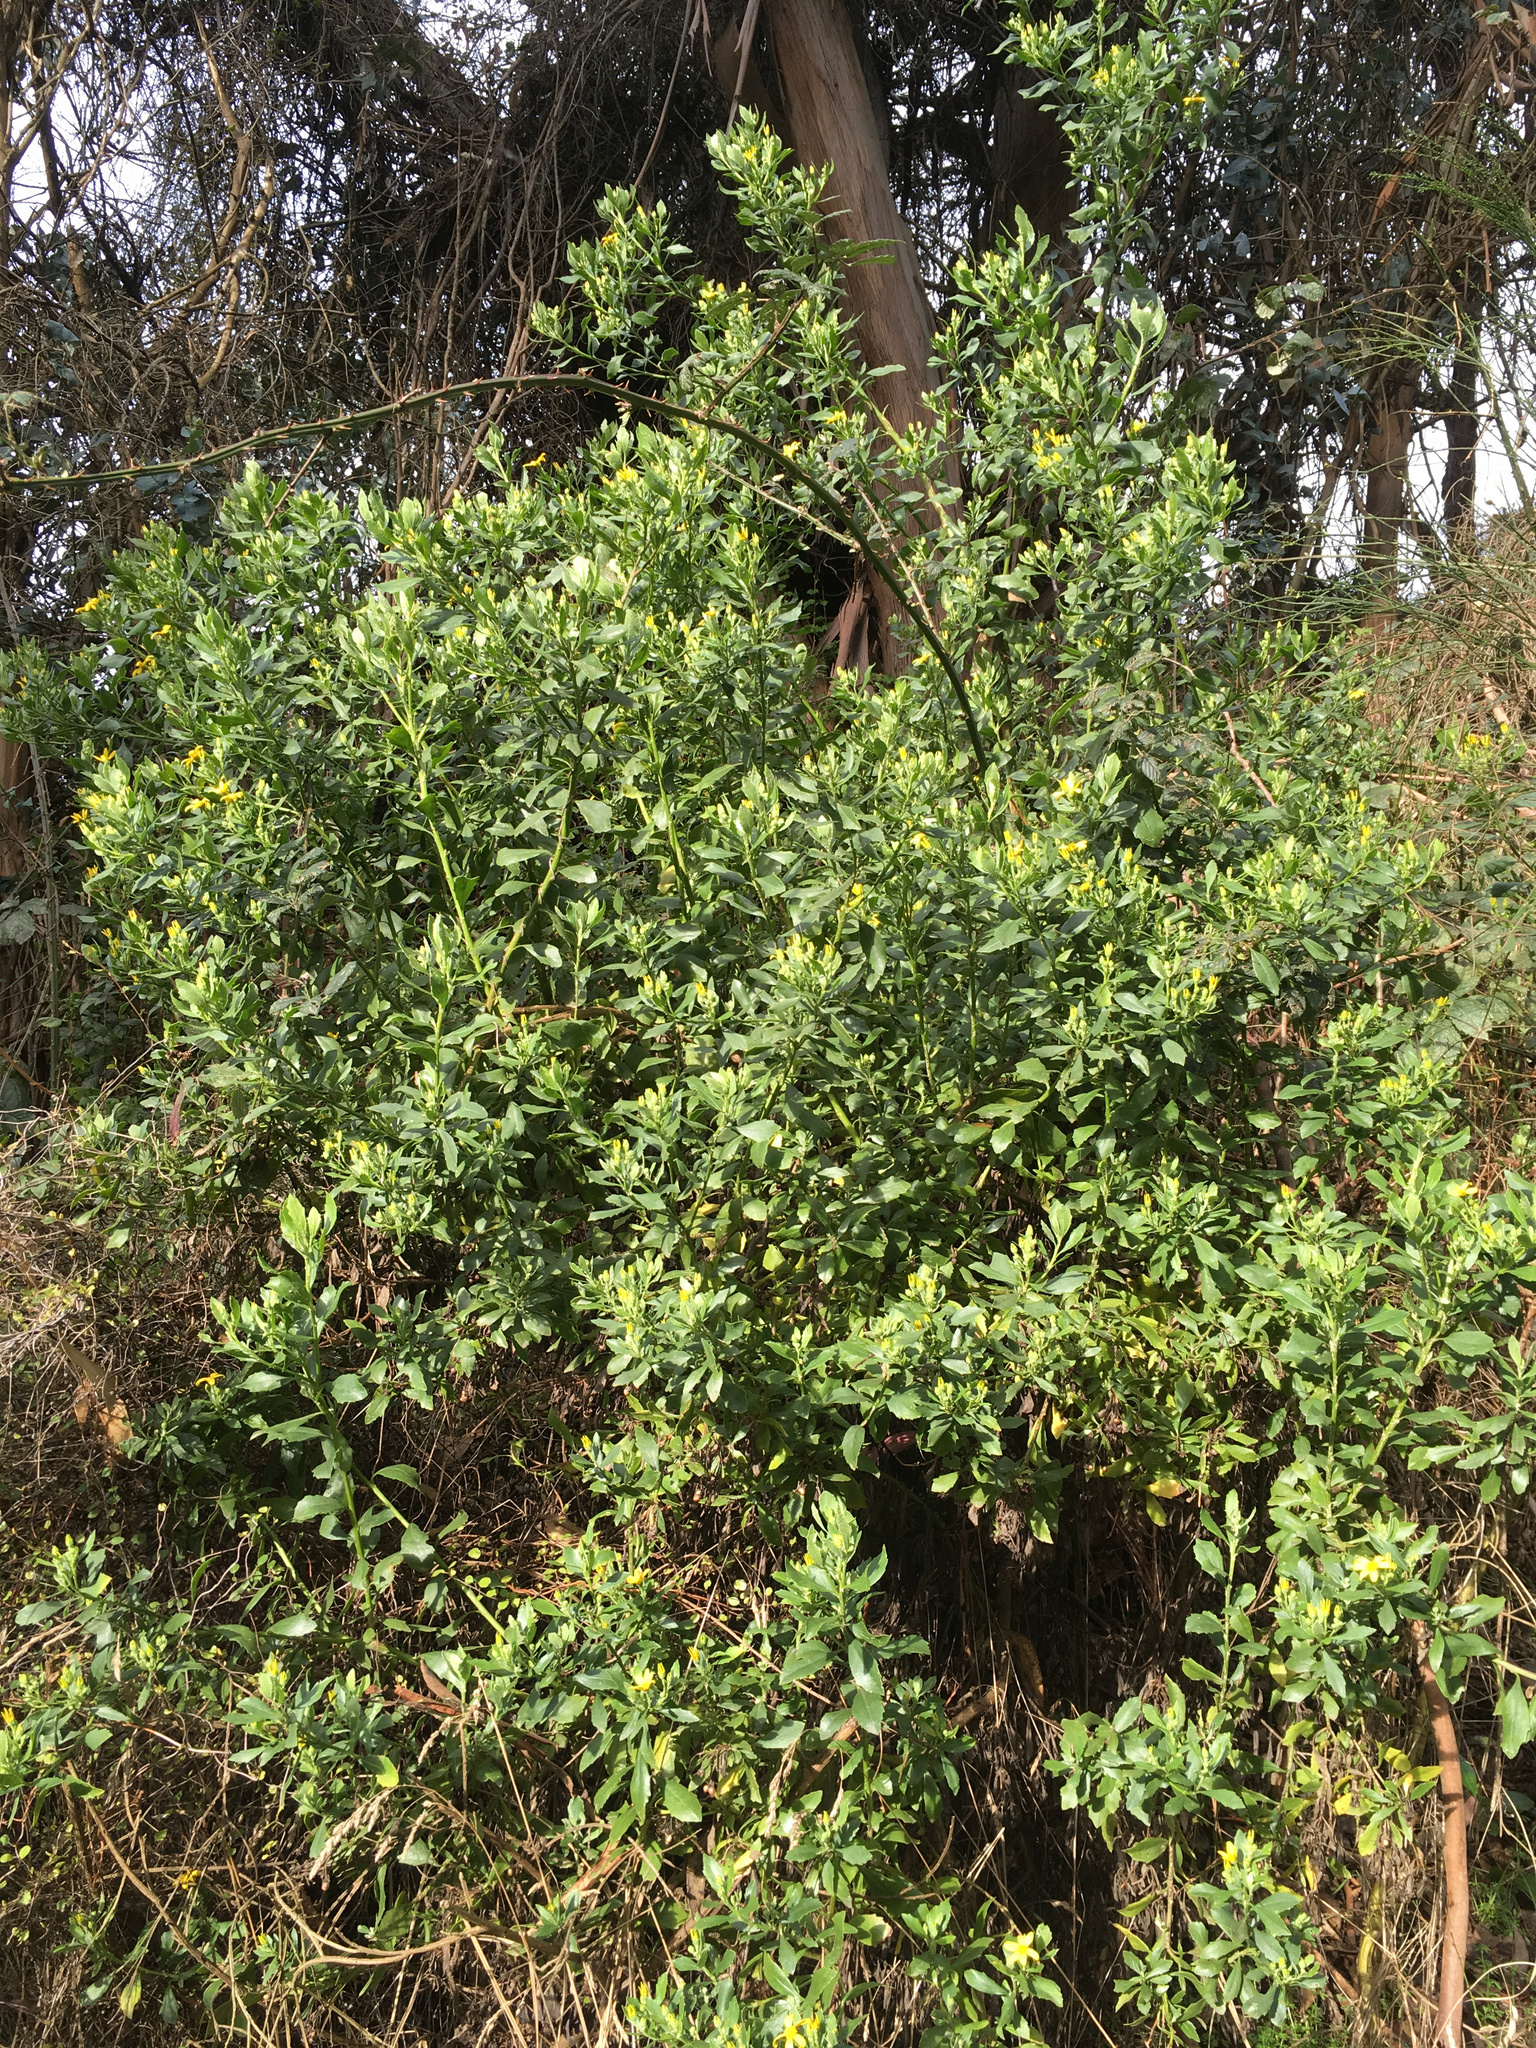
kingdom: Plantae
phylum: Tracheophyta
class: Magnoliopsida
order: Asterales
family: Asteraceae
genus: Osteospermum
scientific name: Osteospermum moniliferum
